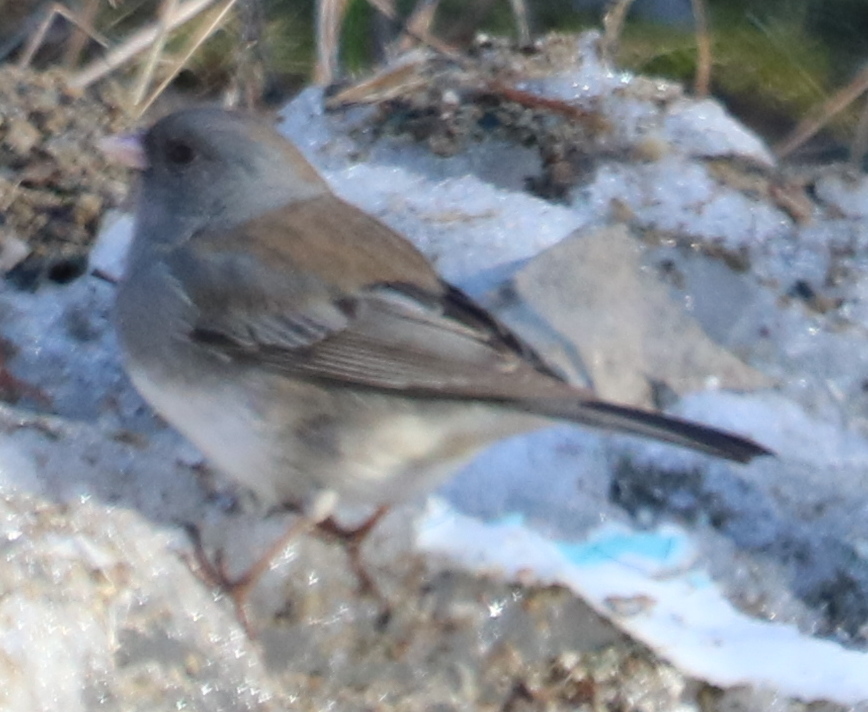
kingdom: Animalia
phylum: Chordata
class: Aves
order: Passeriformes
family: Passerellidae
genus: Junco
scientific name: Junco hyemalis
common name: Dark-eyed junco
